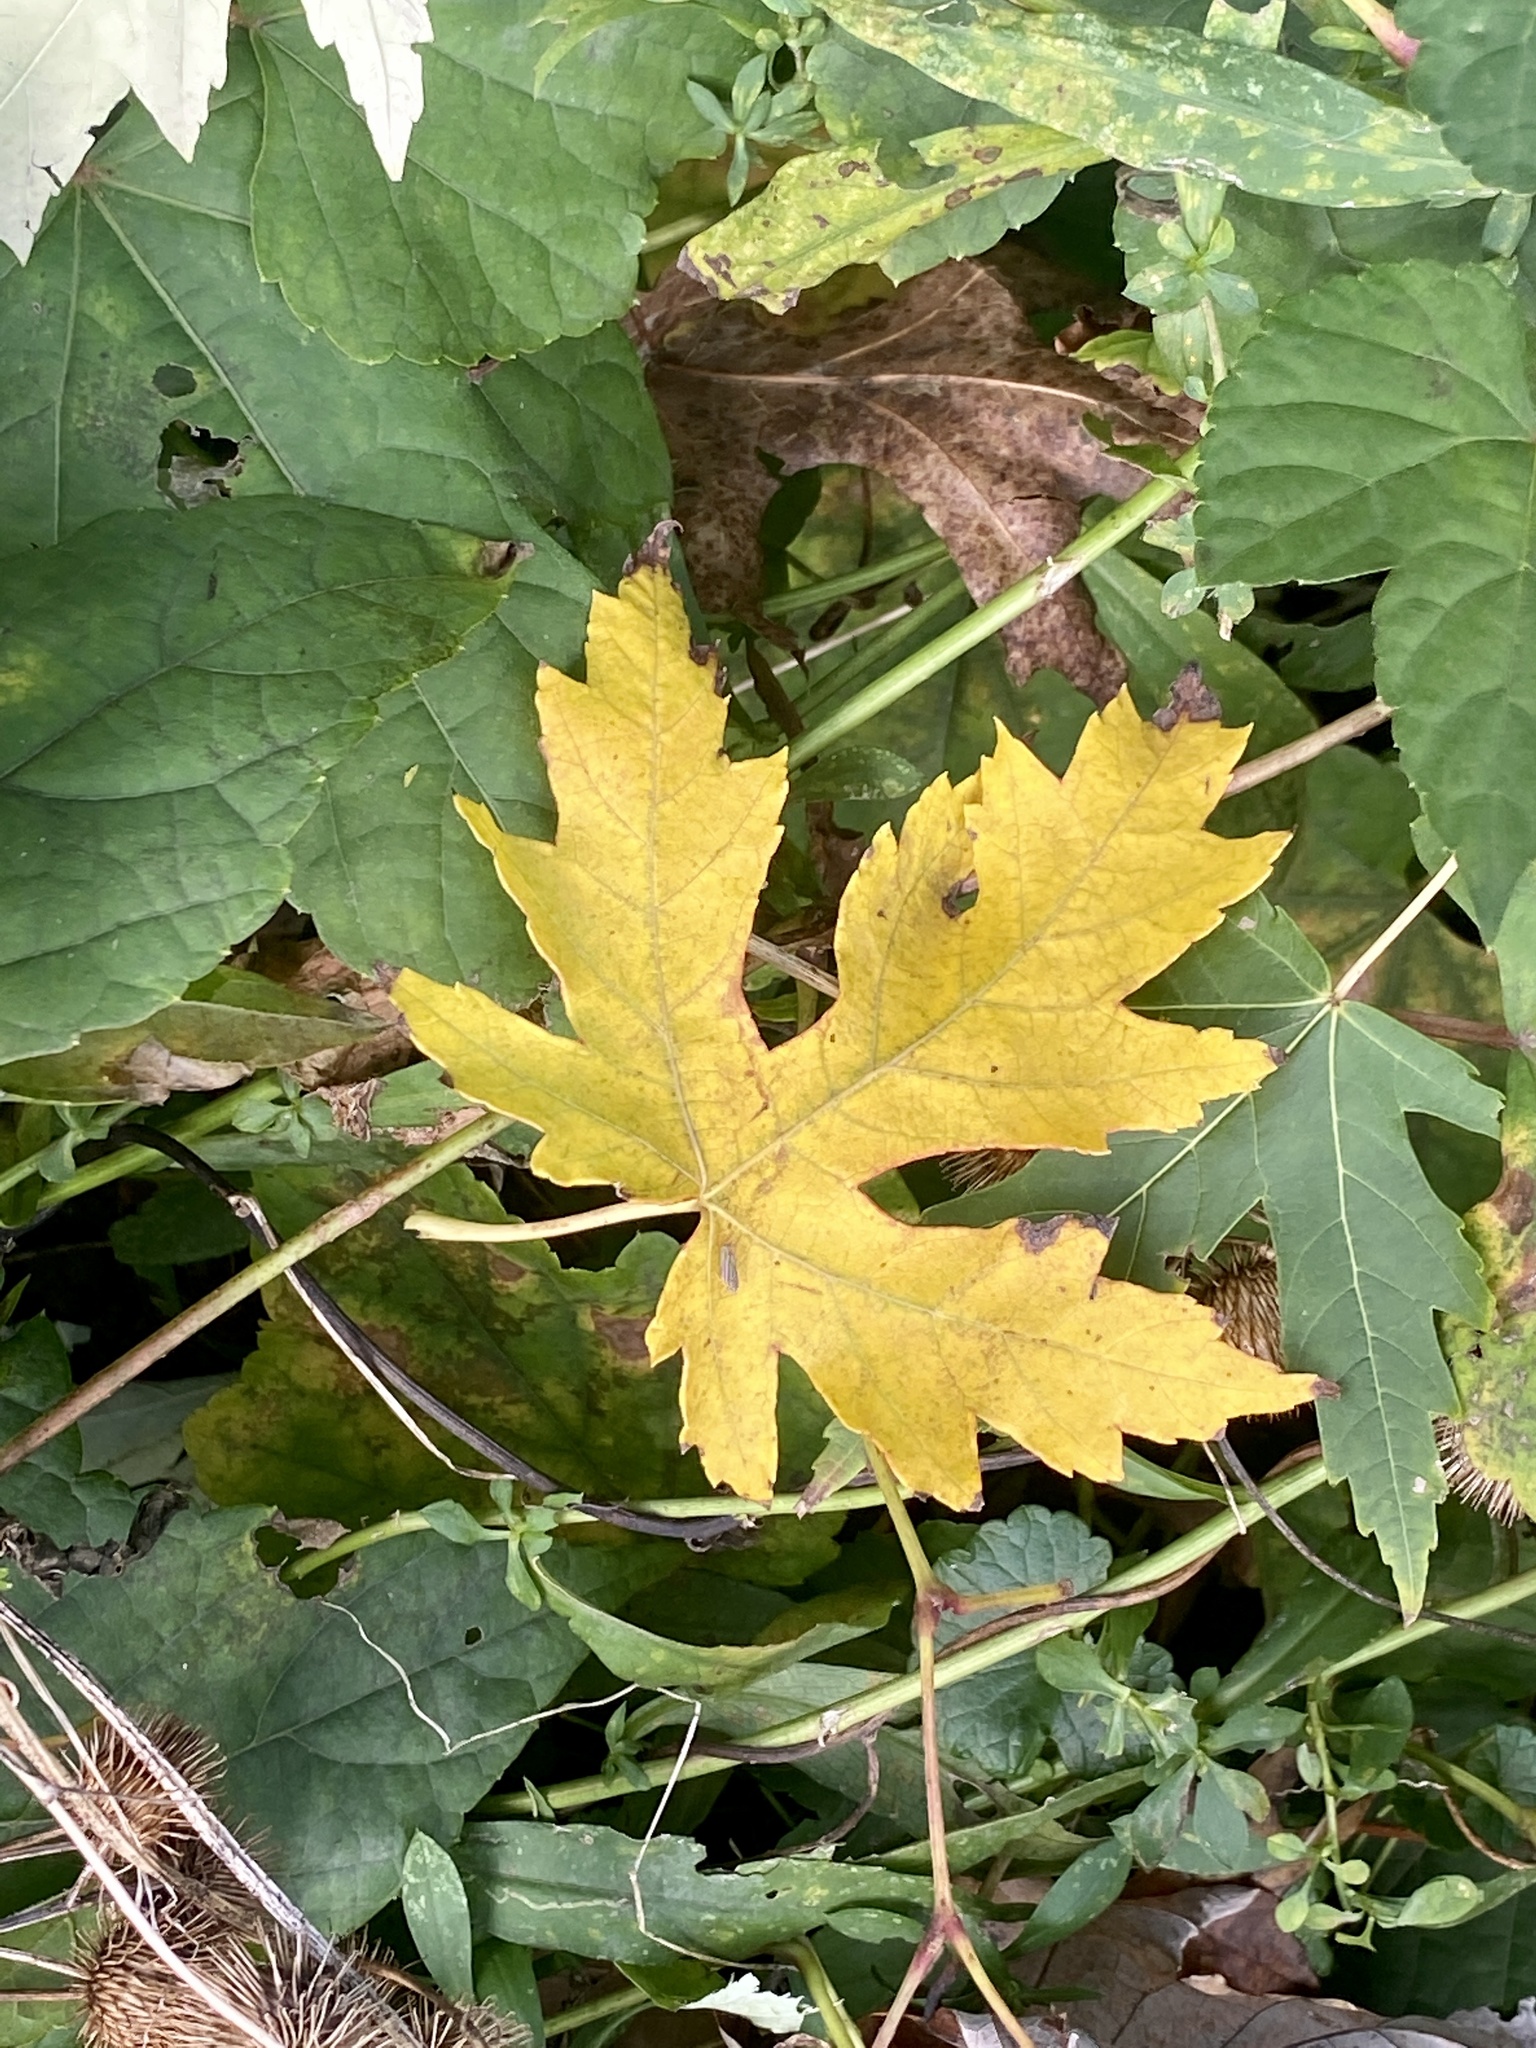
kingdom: Plantae
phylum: Tracheophyta
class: Magnoliopsida
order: Sapindales
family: Sapindaceae
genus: Acer
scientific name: Acer saccharinum
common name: Silver maple
